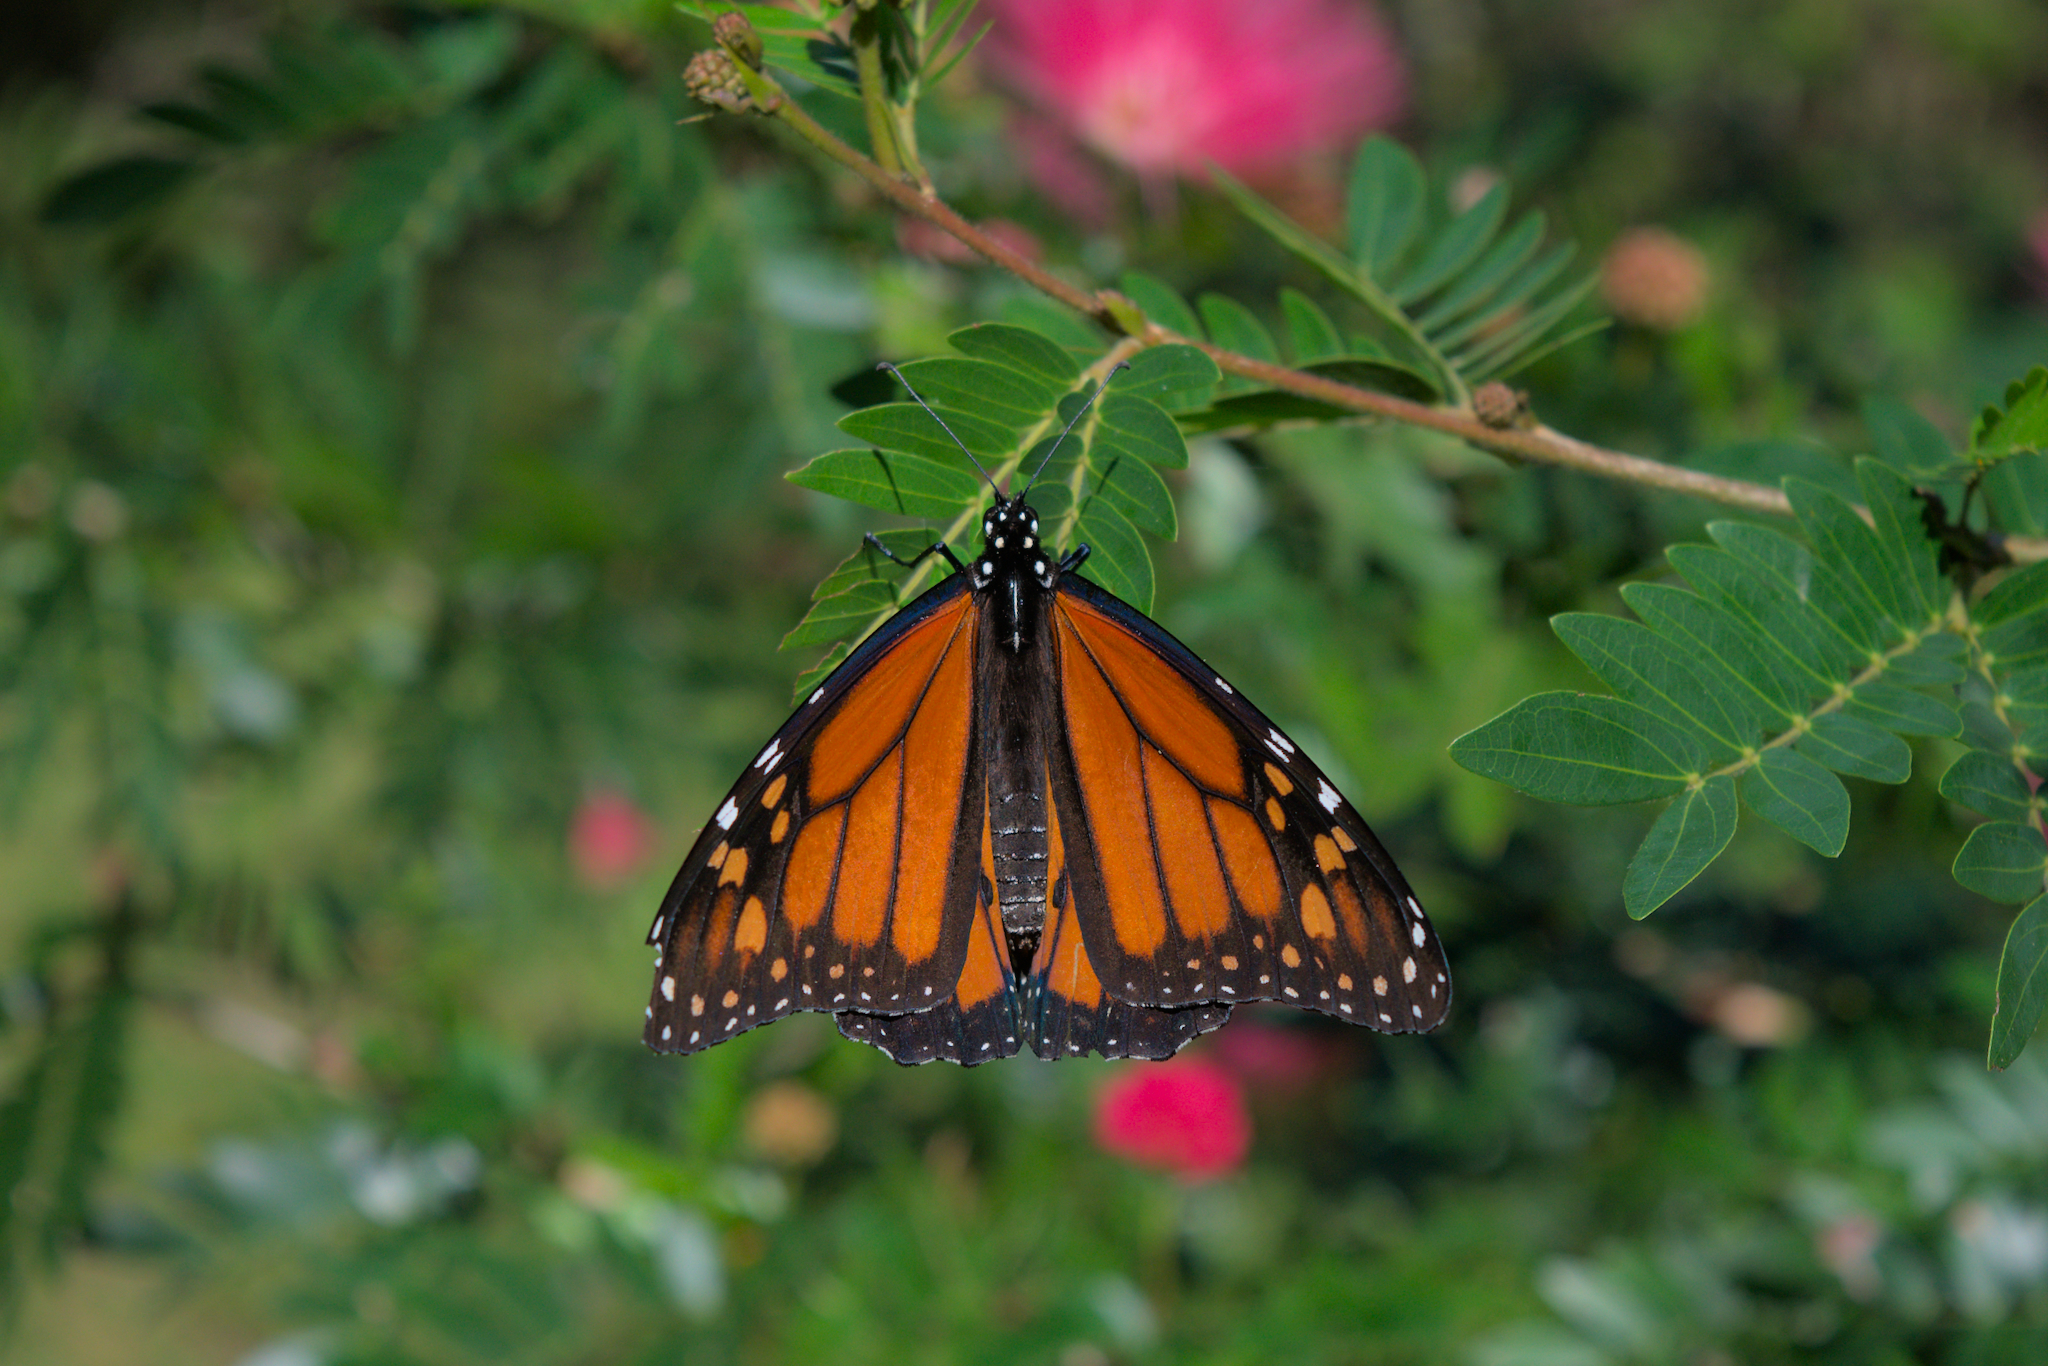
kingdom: Animalia
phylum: Arthropoda
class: Insecta
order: Lepidoptera
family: Nymphalidae
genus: Danaus
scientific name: Danaus plexippus
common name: Monarch
